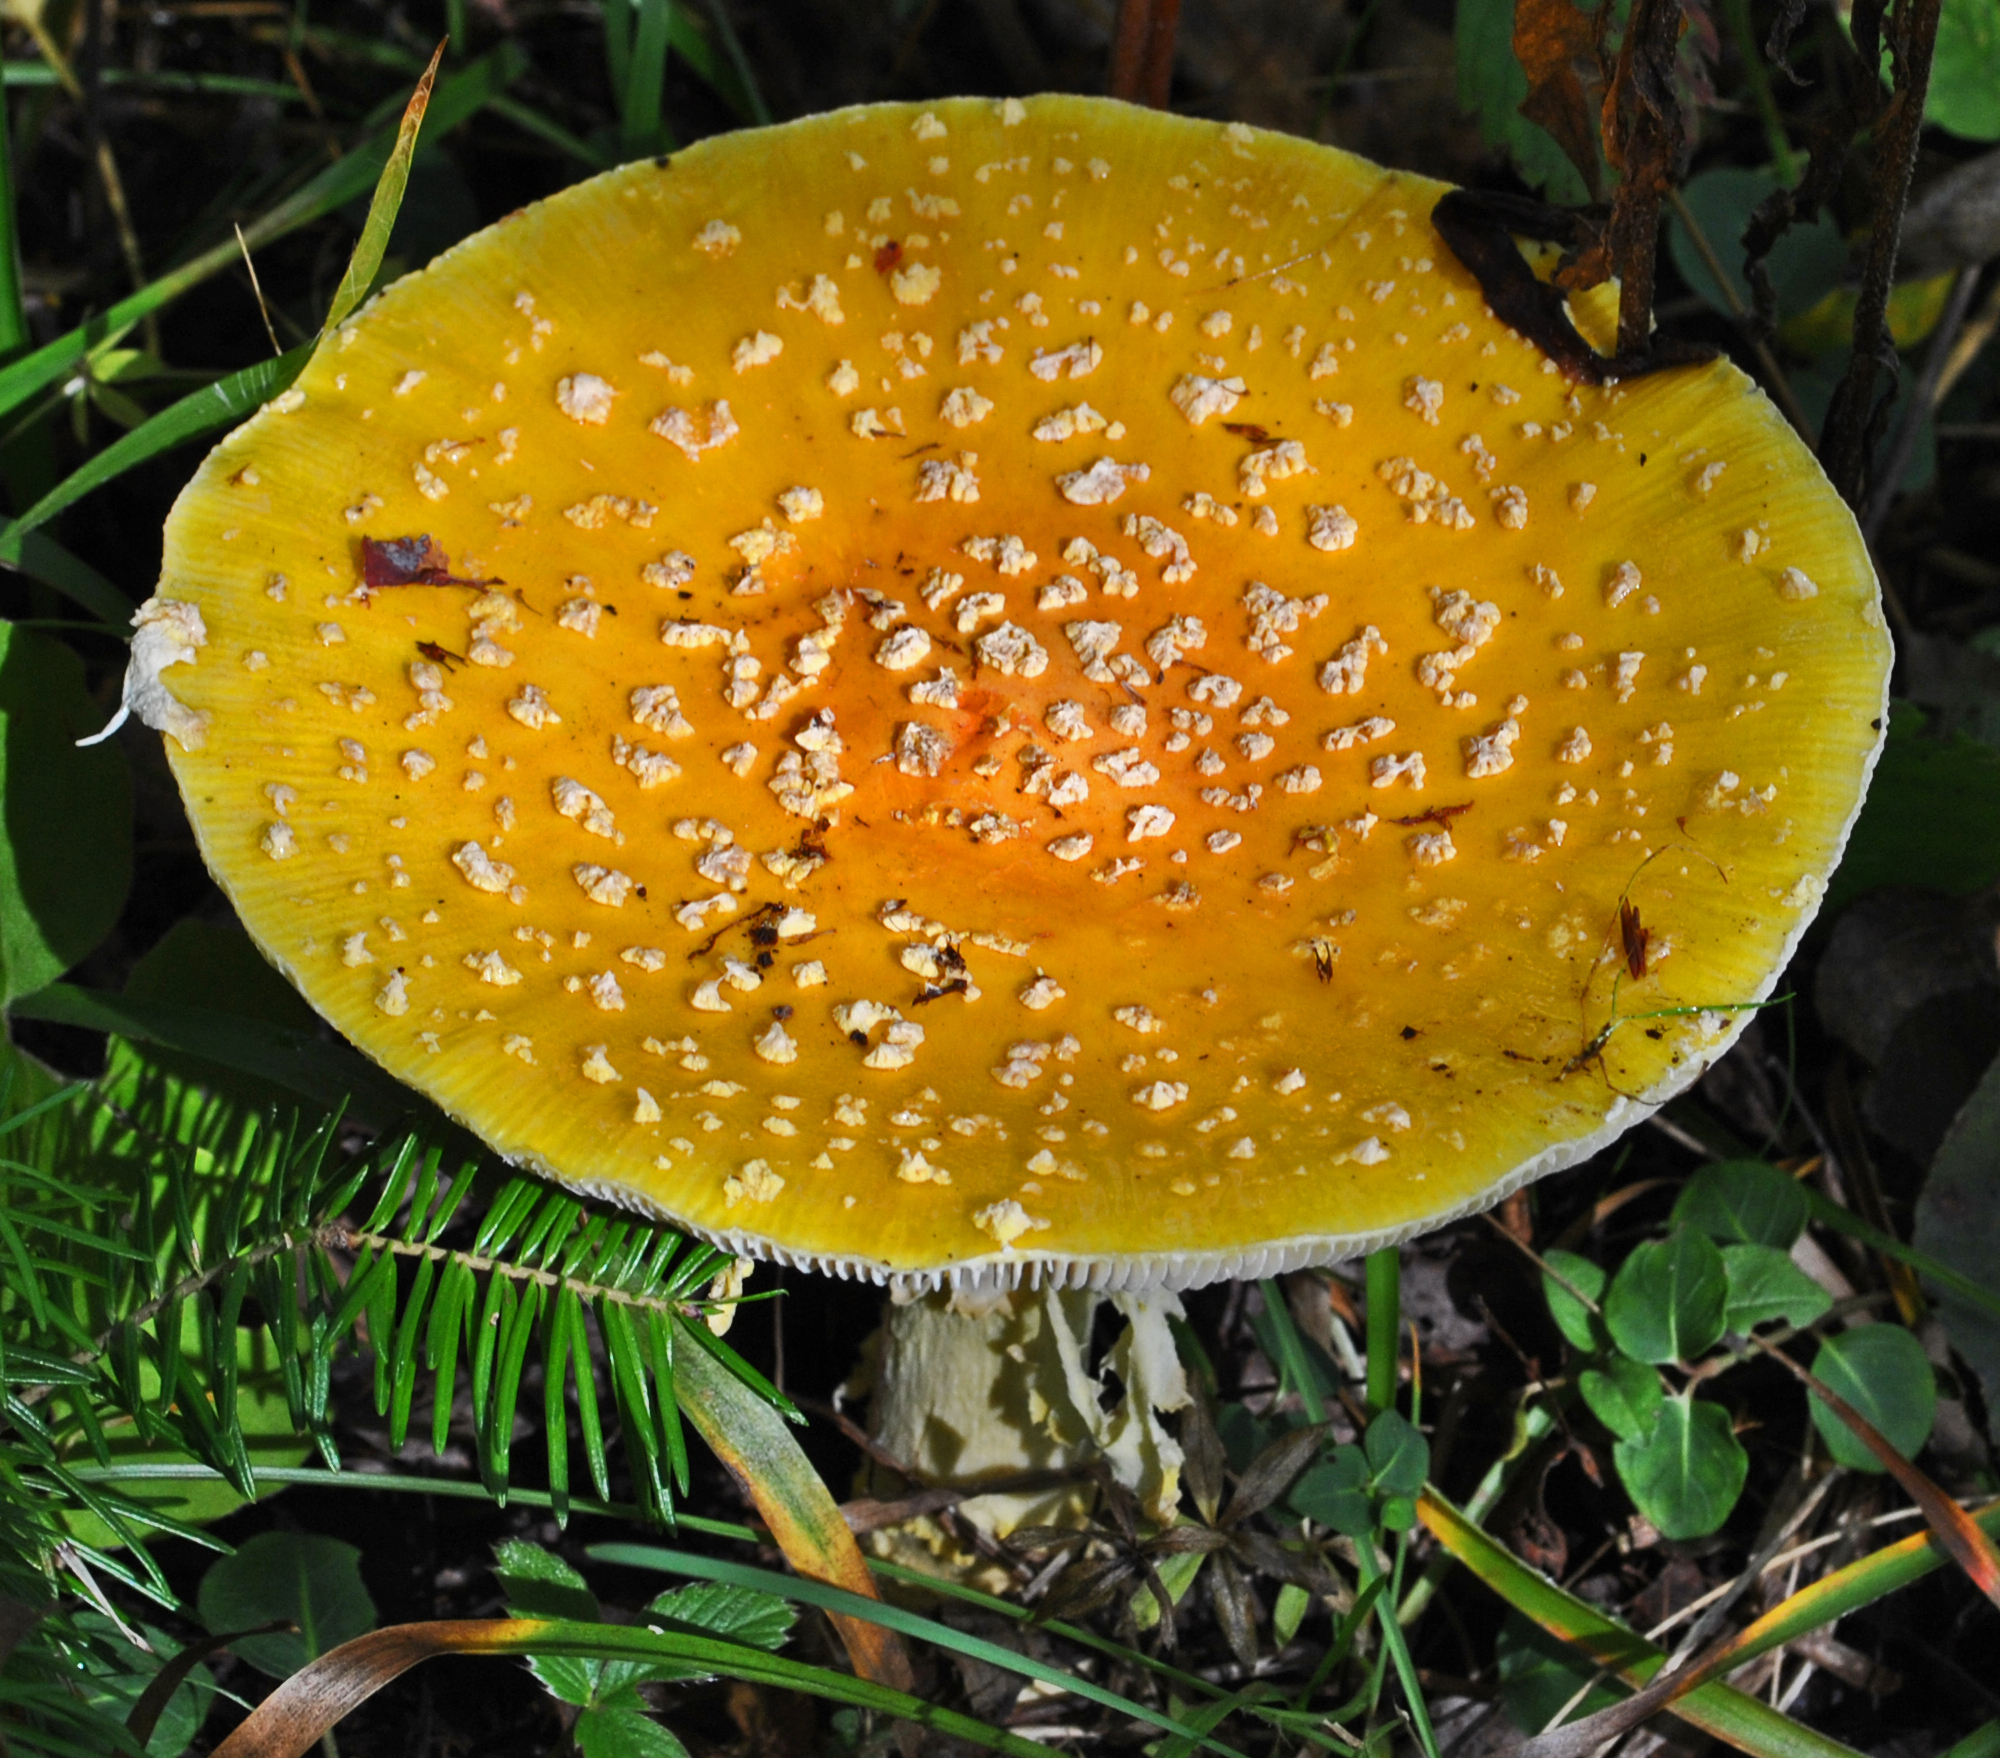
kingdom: Fungi
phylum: Basidiomycota
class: Agaricomycetes
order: Agaricales
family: Amanitaceae
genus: Amanita
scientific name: Amanita muscaria
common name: Fly agaric
